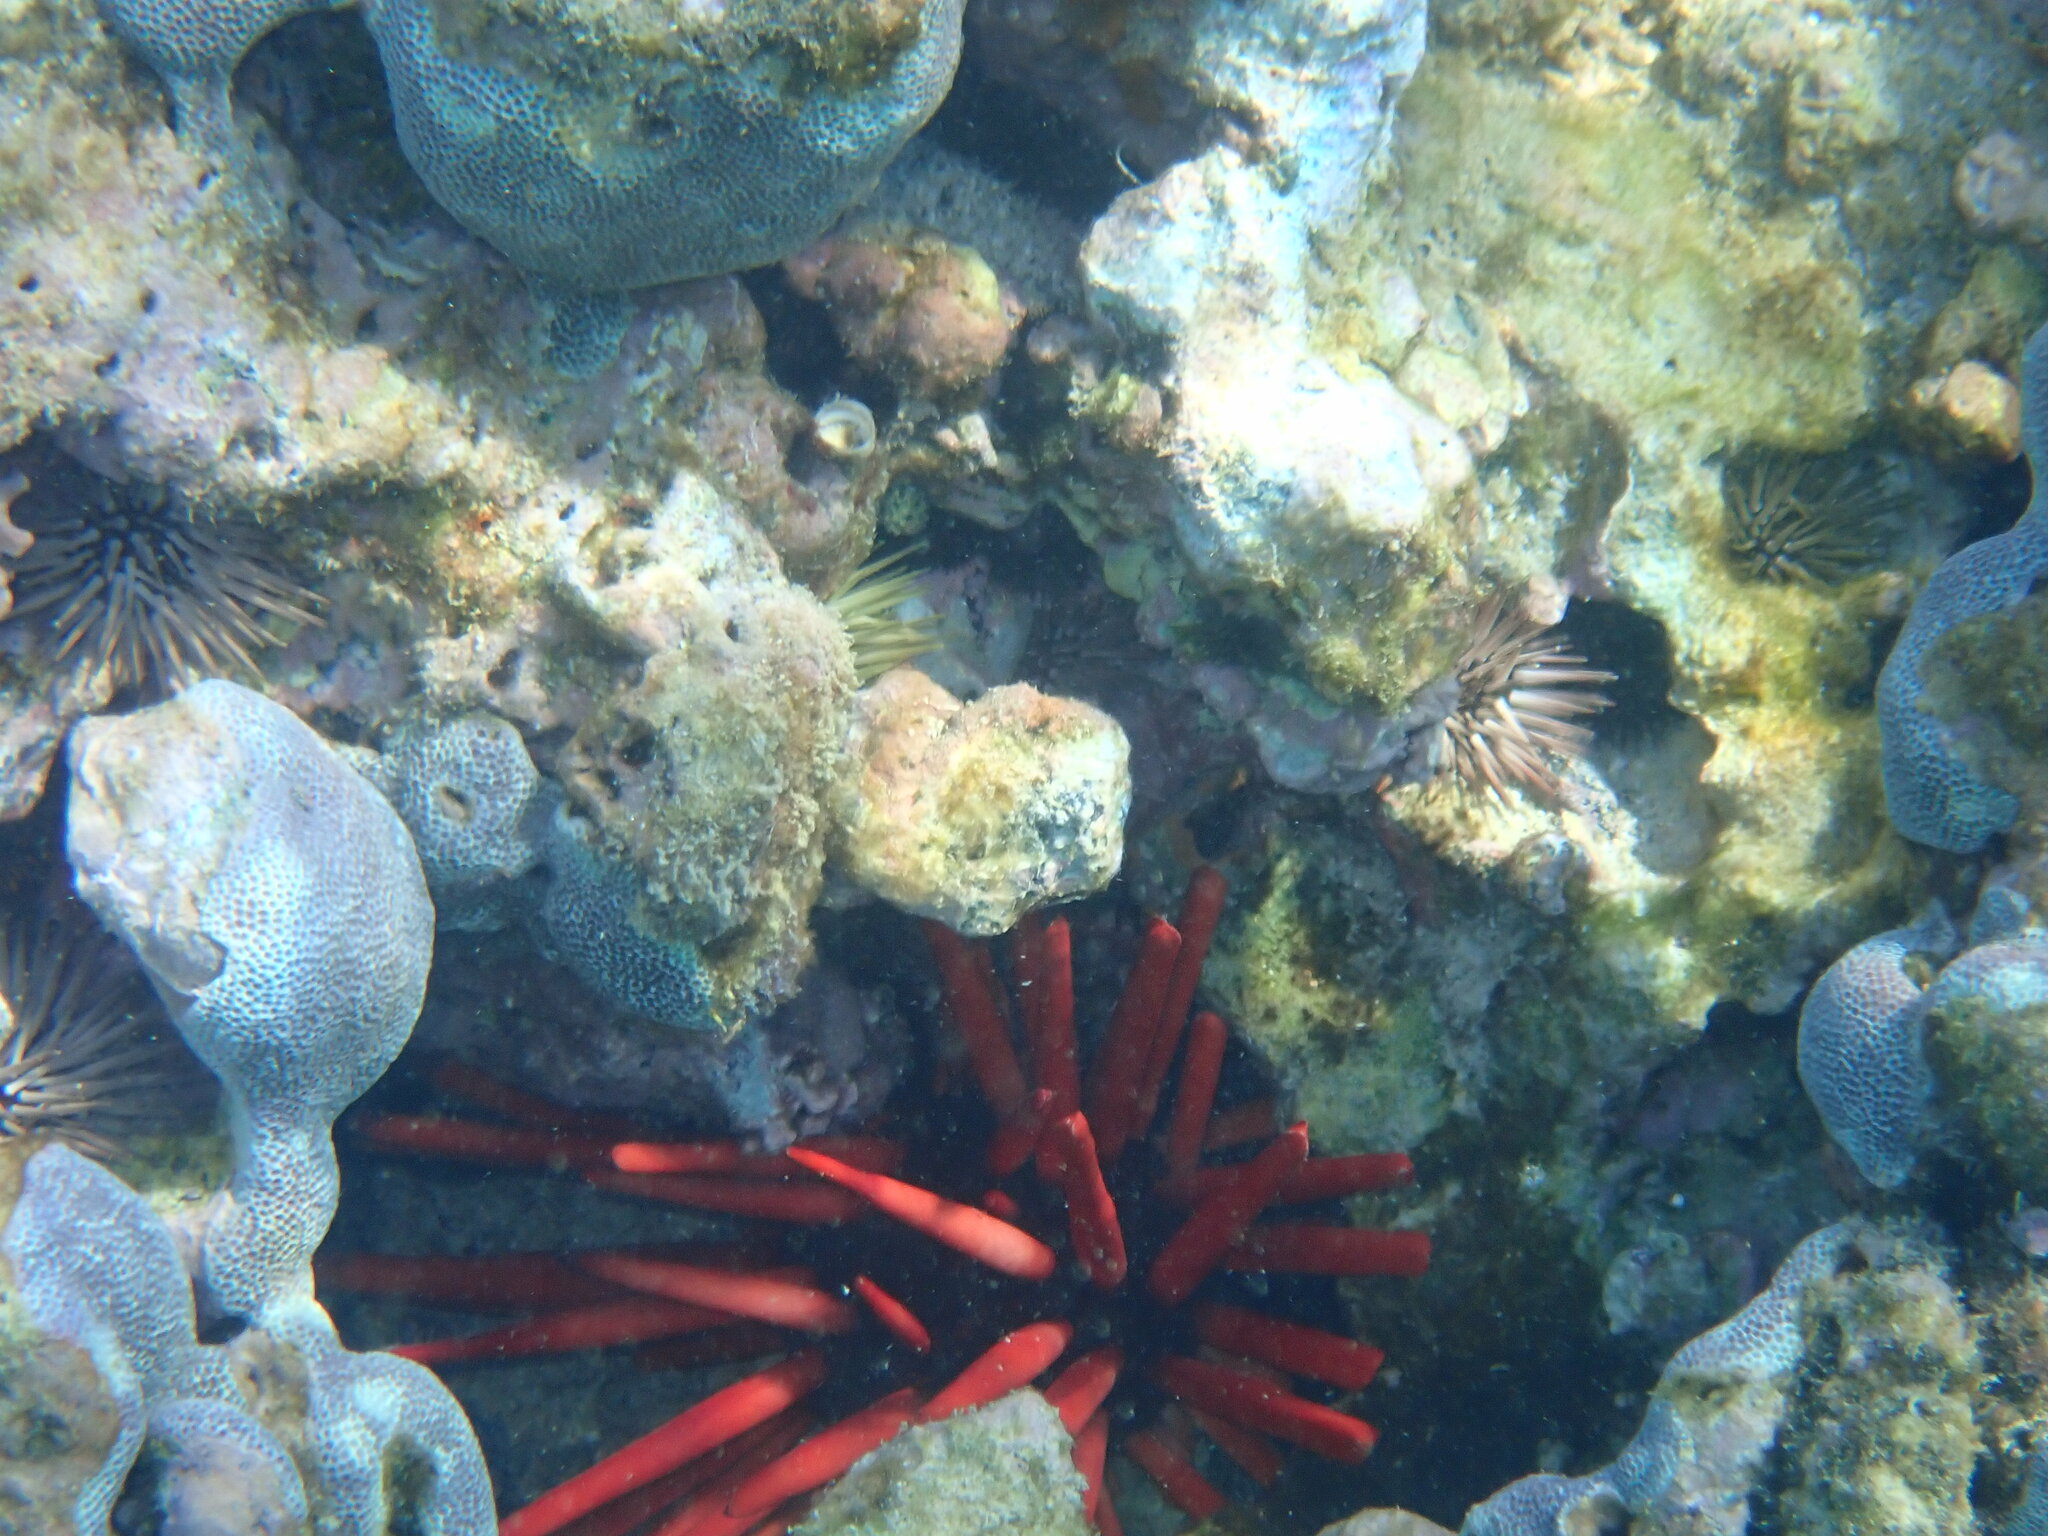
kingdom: Animalia
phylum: Echinodermata
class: Echinoidea
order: Camarodonta
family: Echinometridae
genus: Heterocentrotus
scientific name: Heterocentrotus mamillatus
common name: Slate pencil urchin
